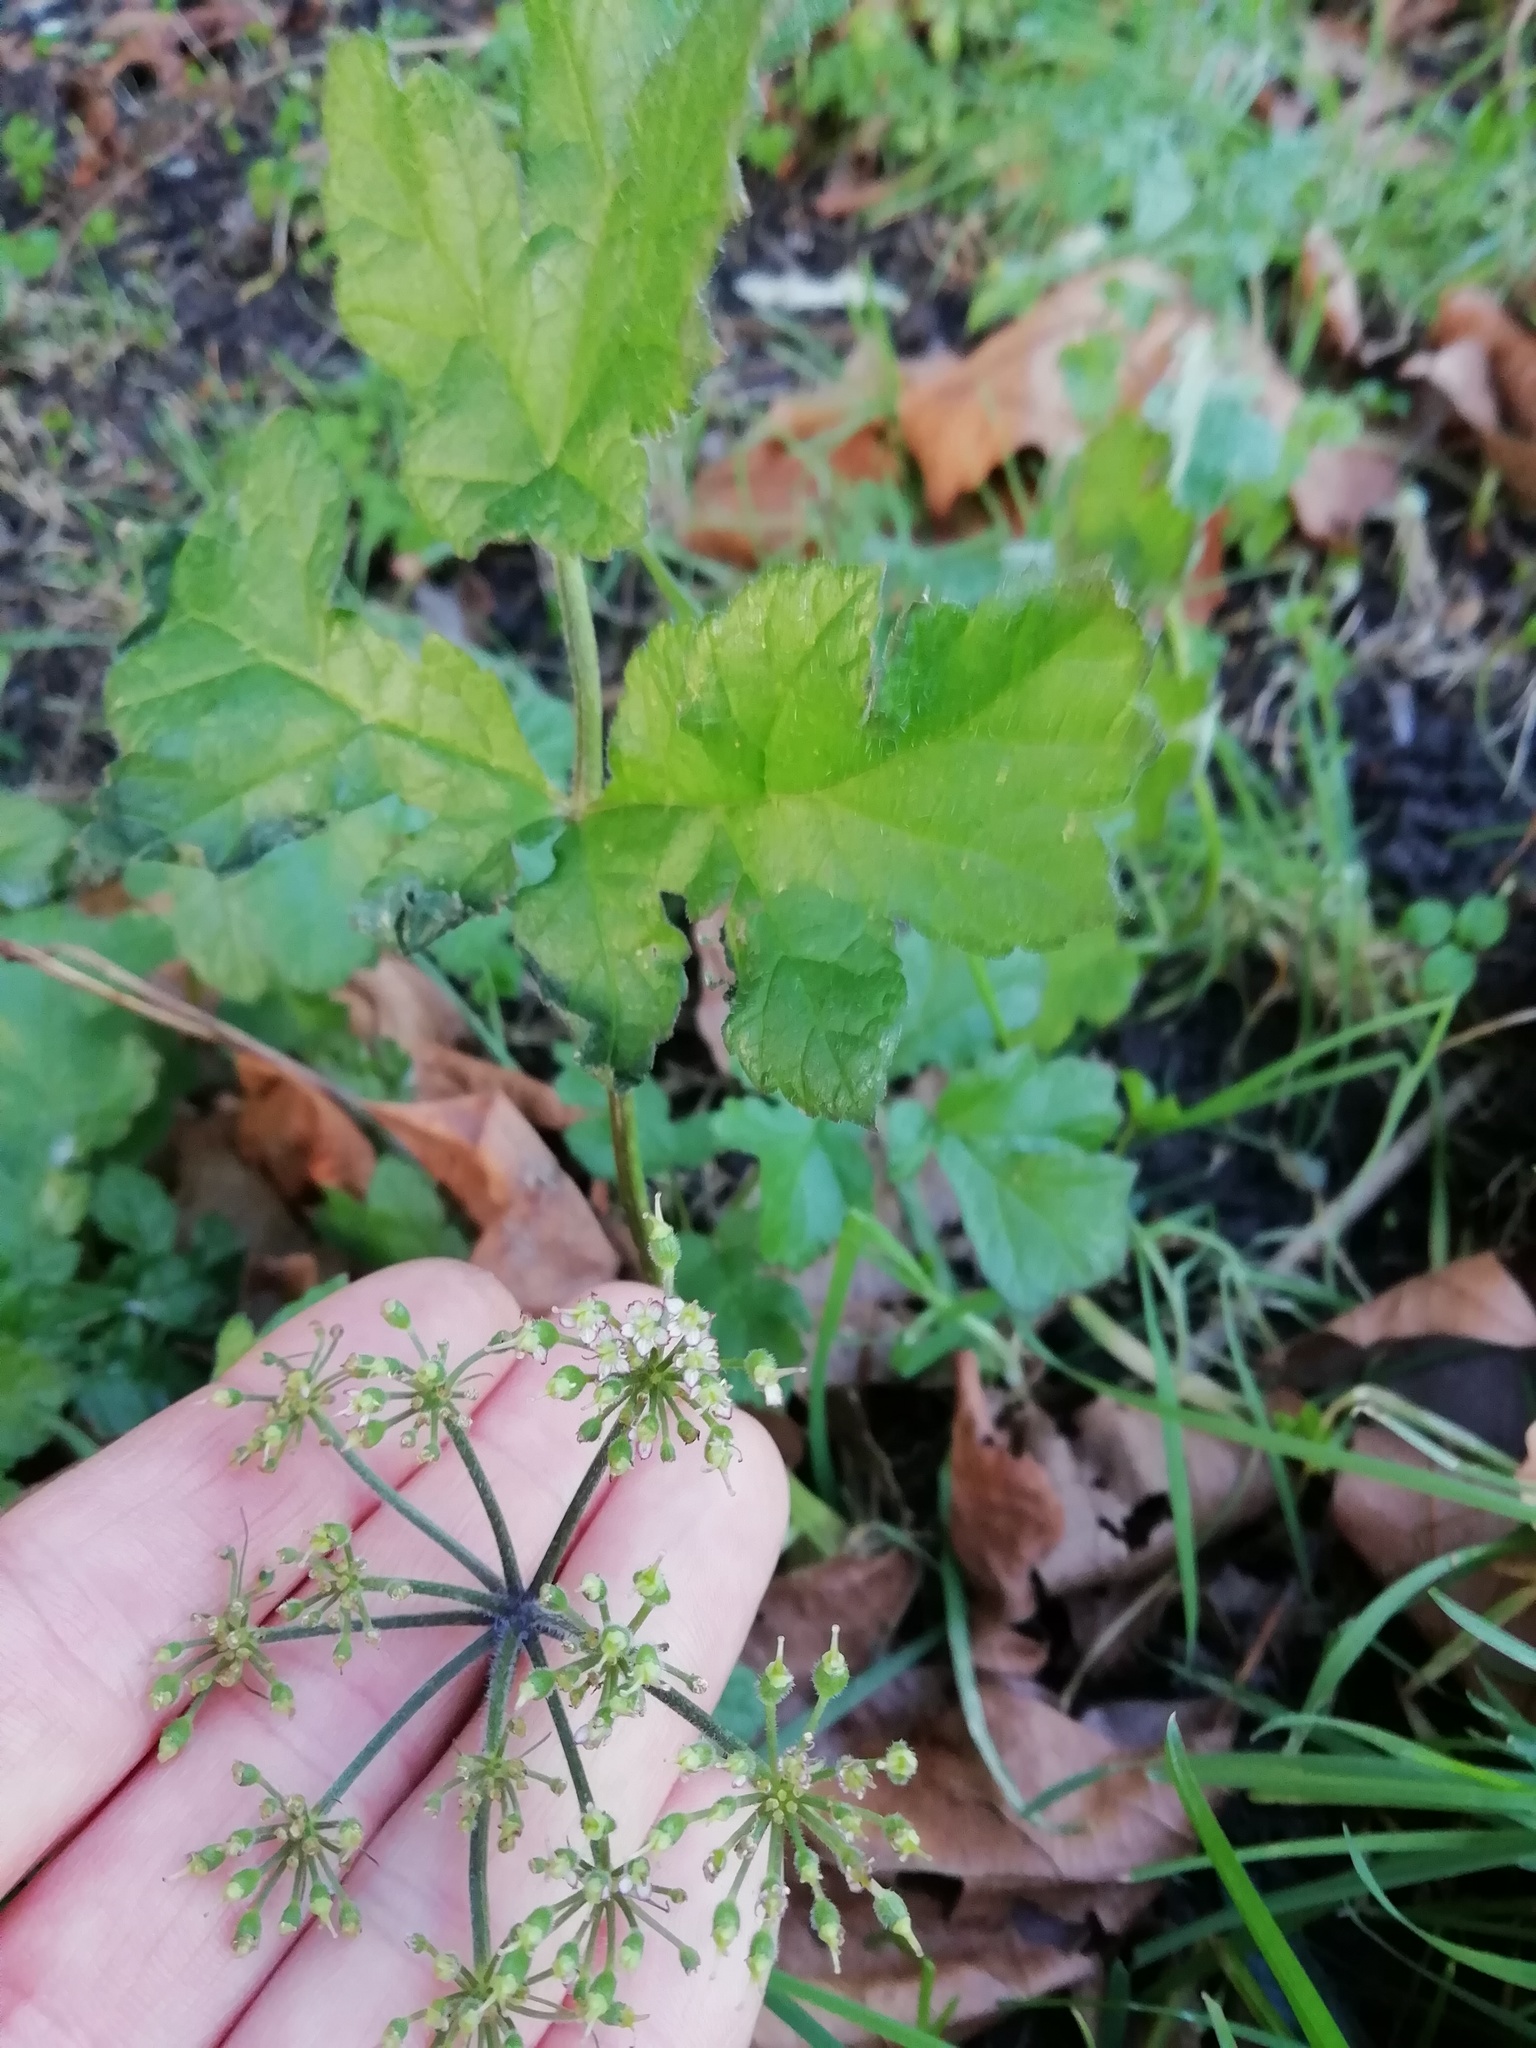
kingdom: Plantae
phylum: Tracheophyta
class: Magnoliopsida
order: Apiales
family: Apiaceae
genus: Heracleum
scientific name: Heracleum sphondylium
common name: Hogweed
